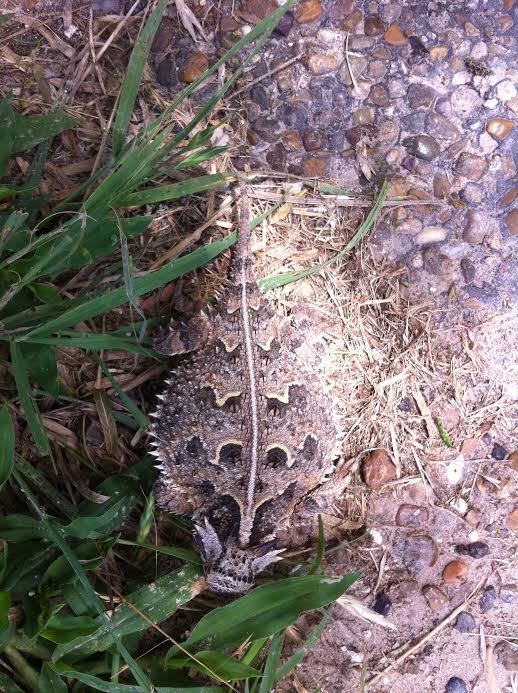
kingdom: Animalia
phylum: Chordata
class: Squamata
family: Phrynosomatidae
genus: Phrynosoma
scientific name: Phrynosoma cornutum
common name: Texas horned lizard
